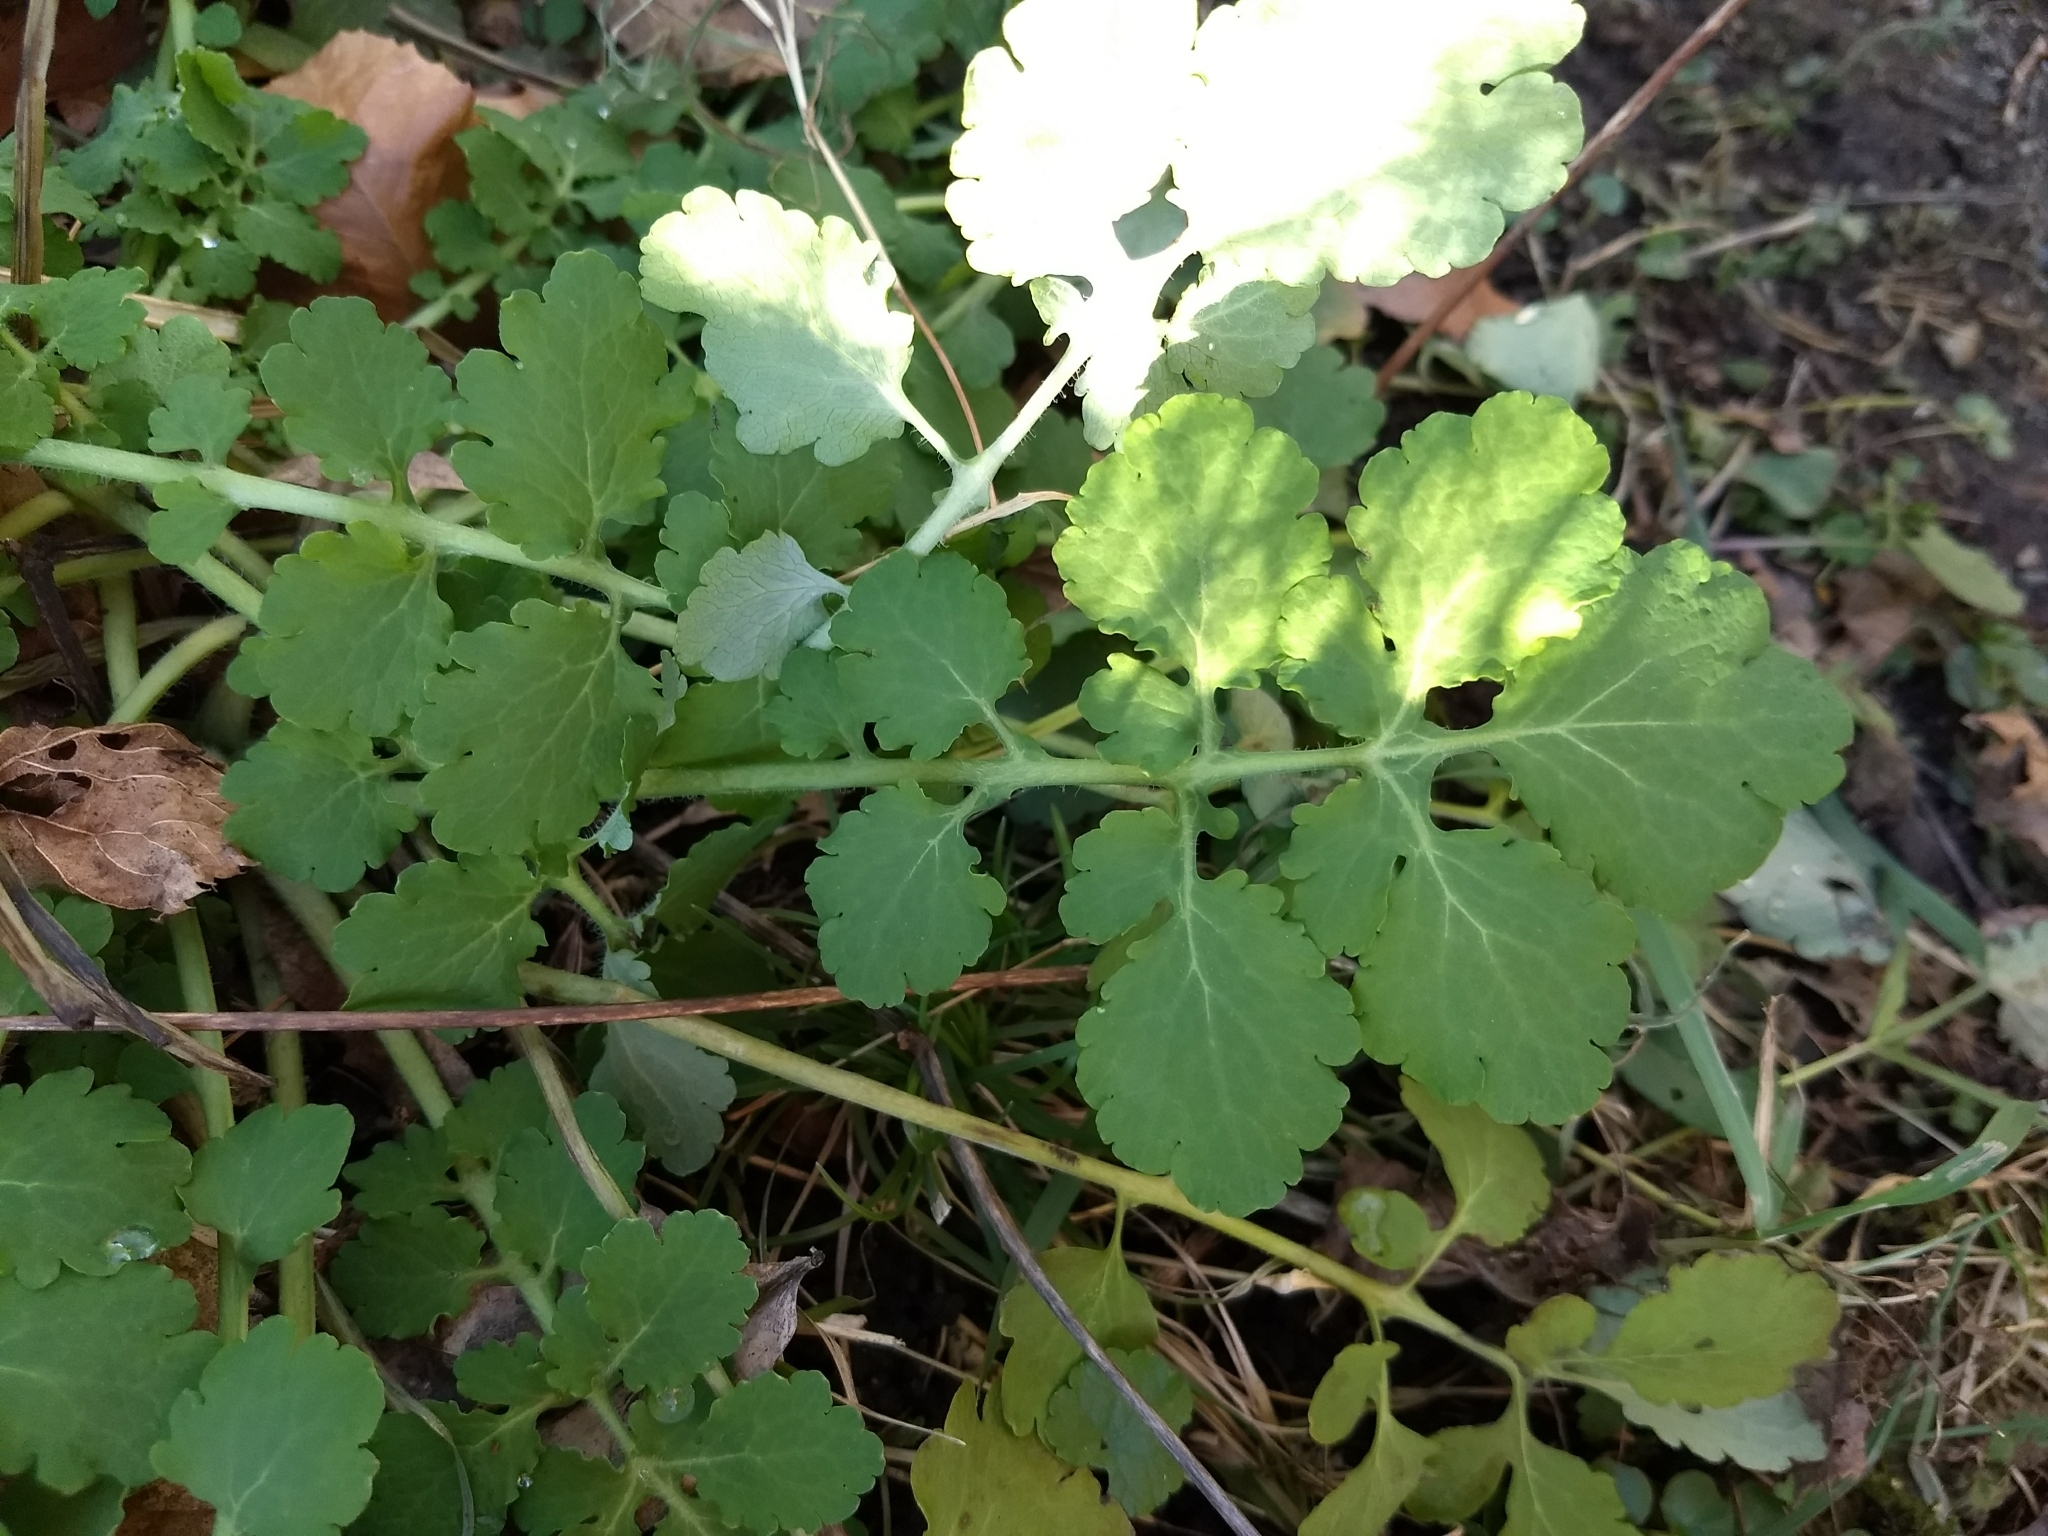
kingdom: Plantae
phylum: Tracheophyta
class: Magnoliopsida
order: Ranunculales
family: Papaveraceae
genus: Chelidonium
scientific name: Chelidonium majus
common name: Greater celandine
